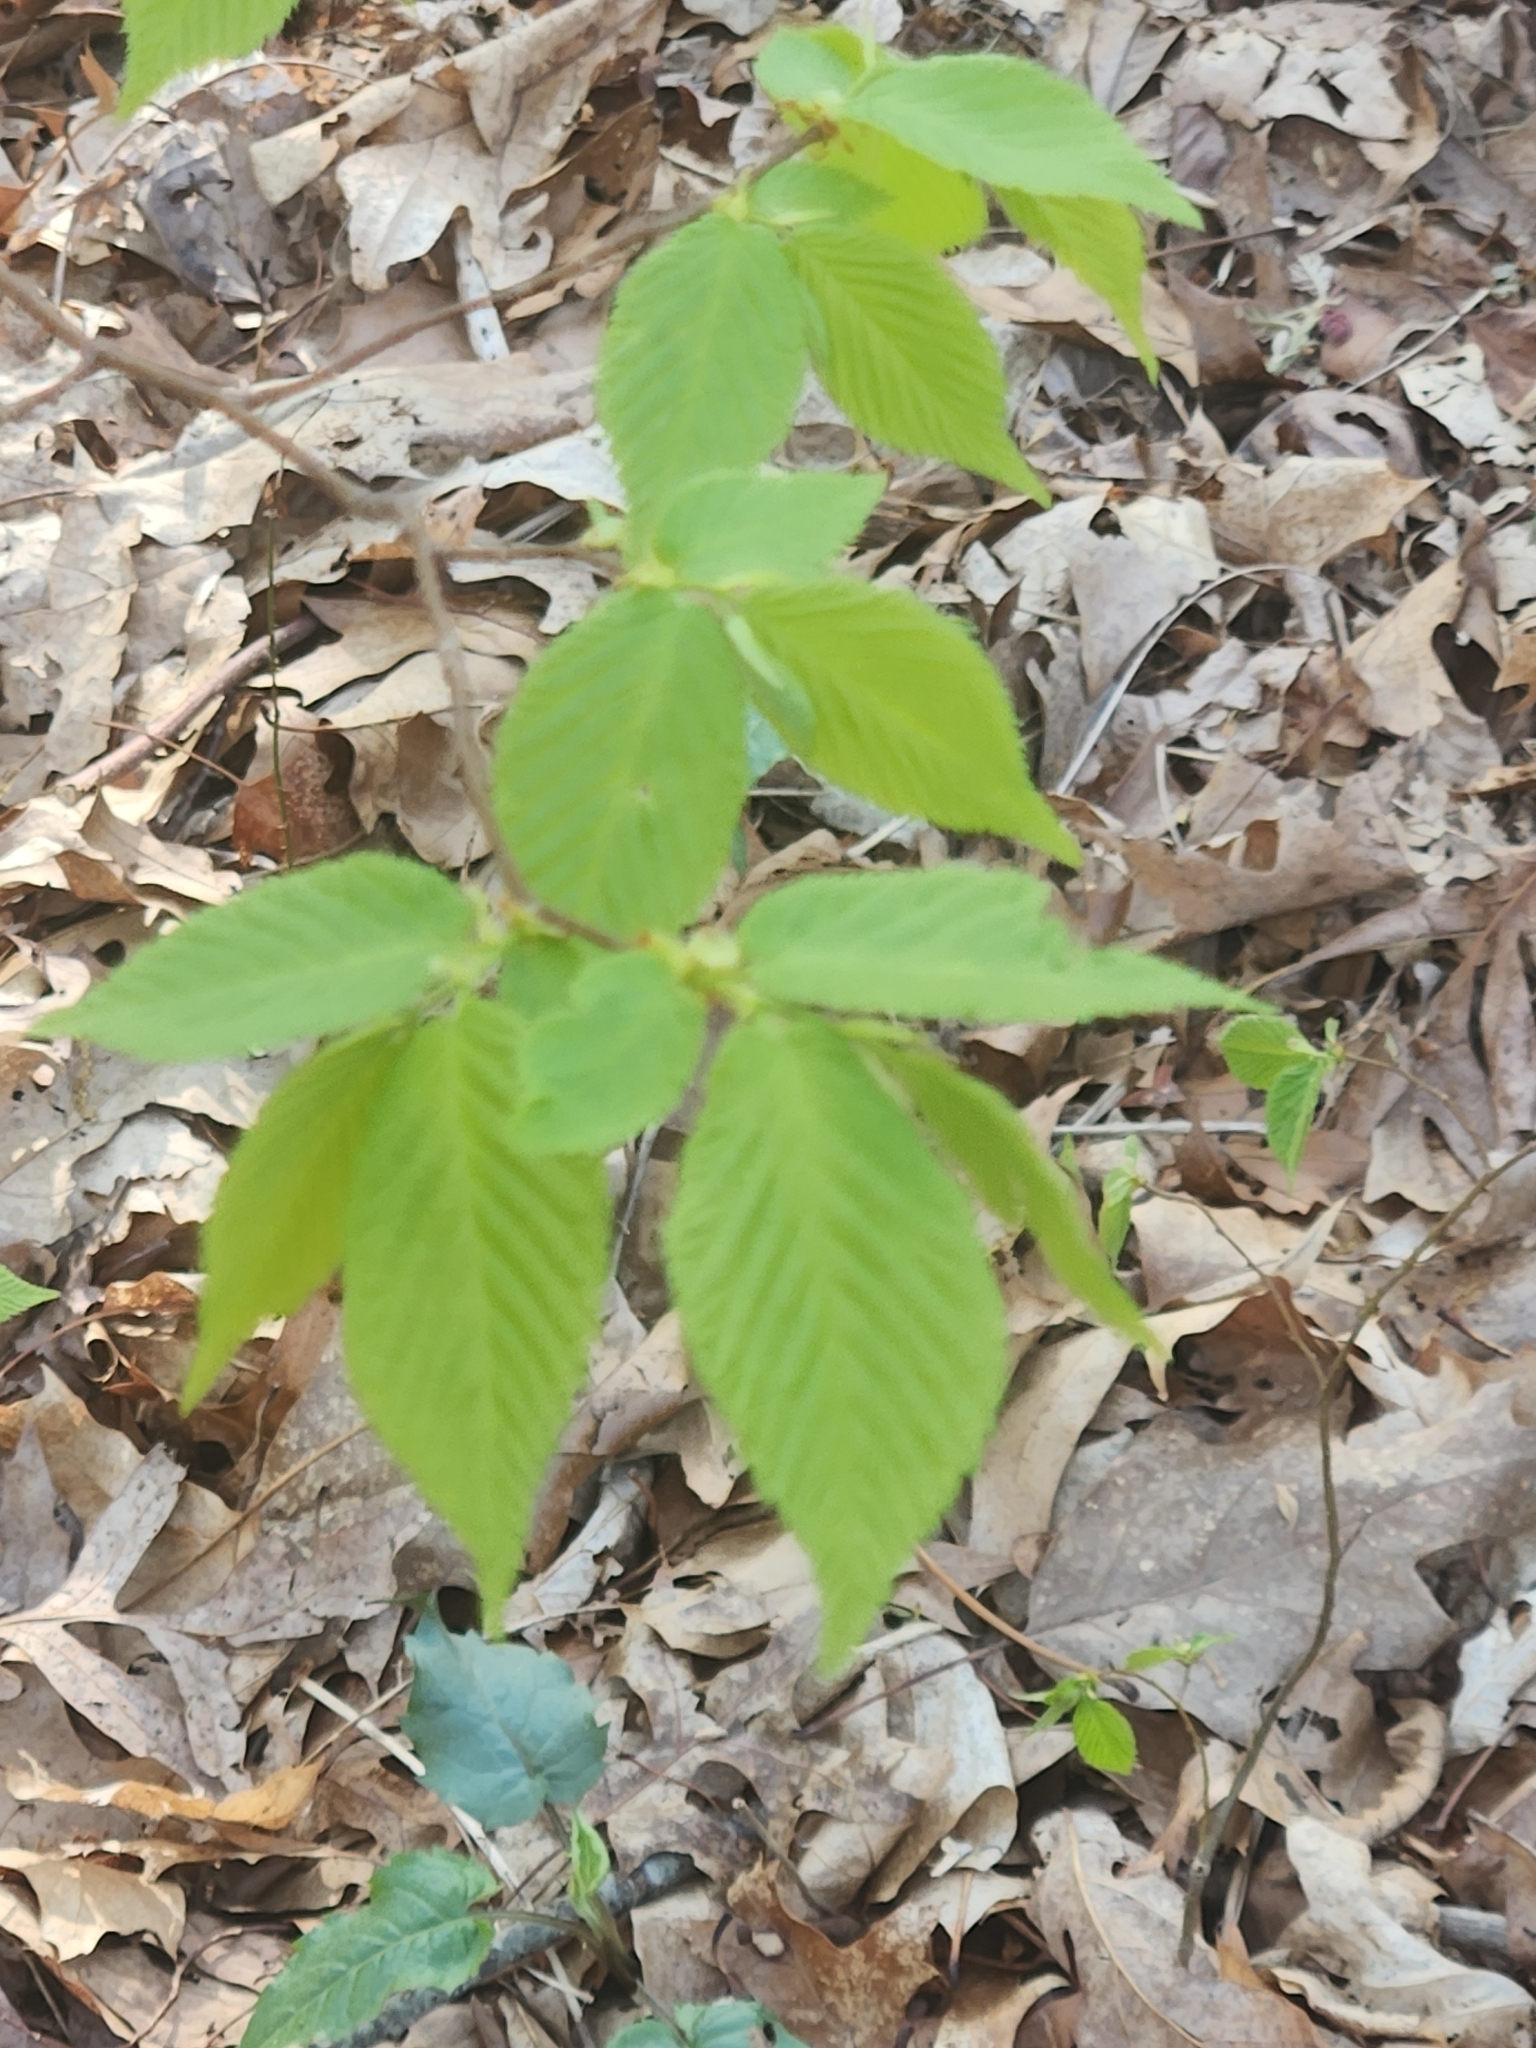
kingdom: Plantae
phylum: Tracheophyta
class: Magnoliopsida
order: Fagales
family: Fagaceae
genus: Fagus
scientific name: Fagus grandifolia
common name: American beech
